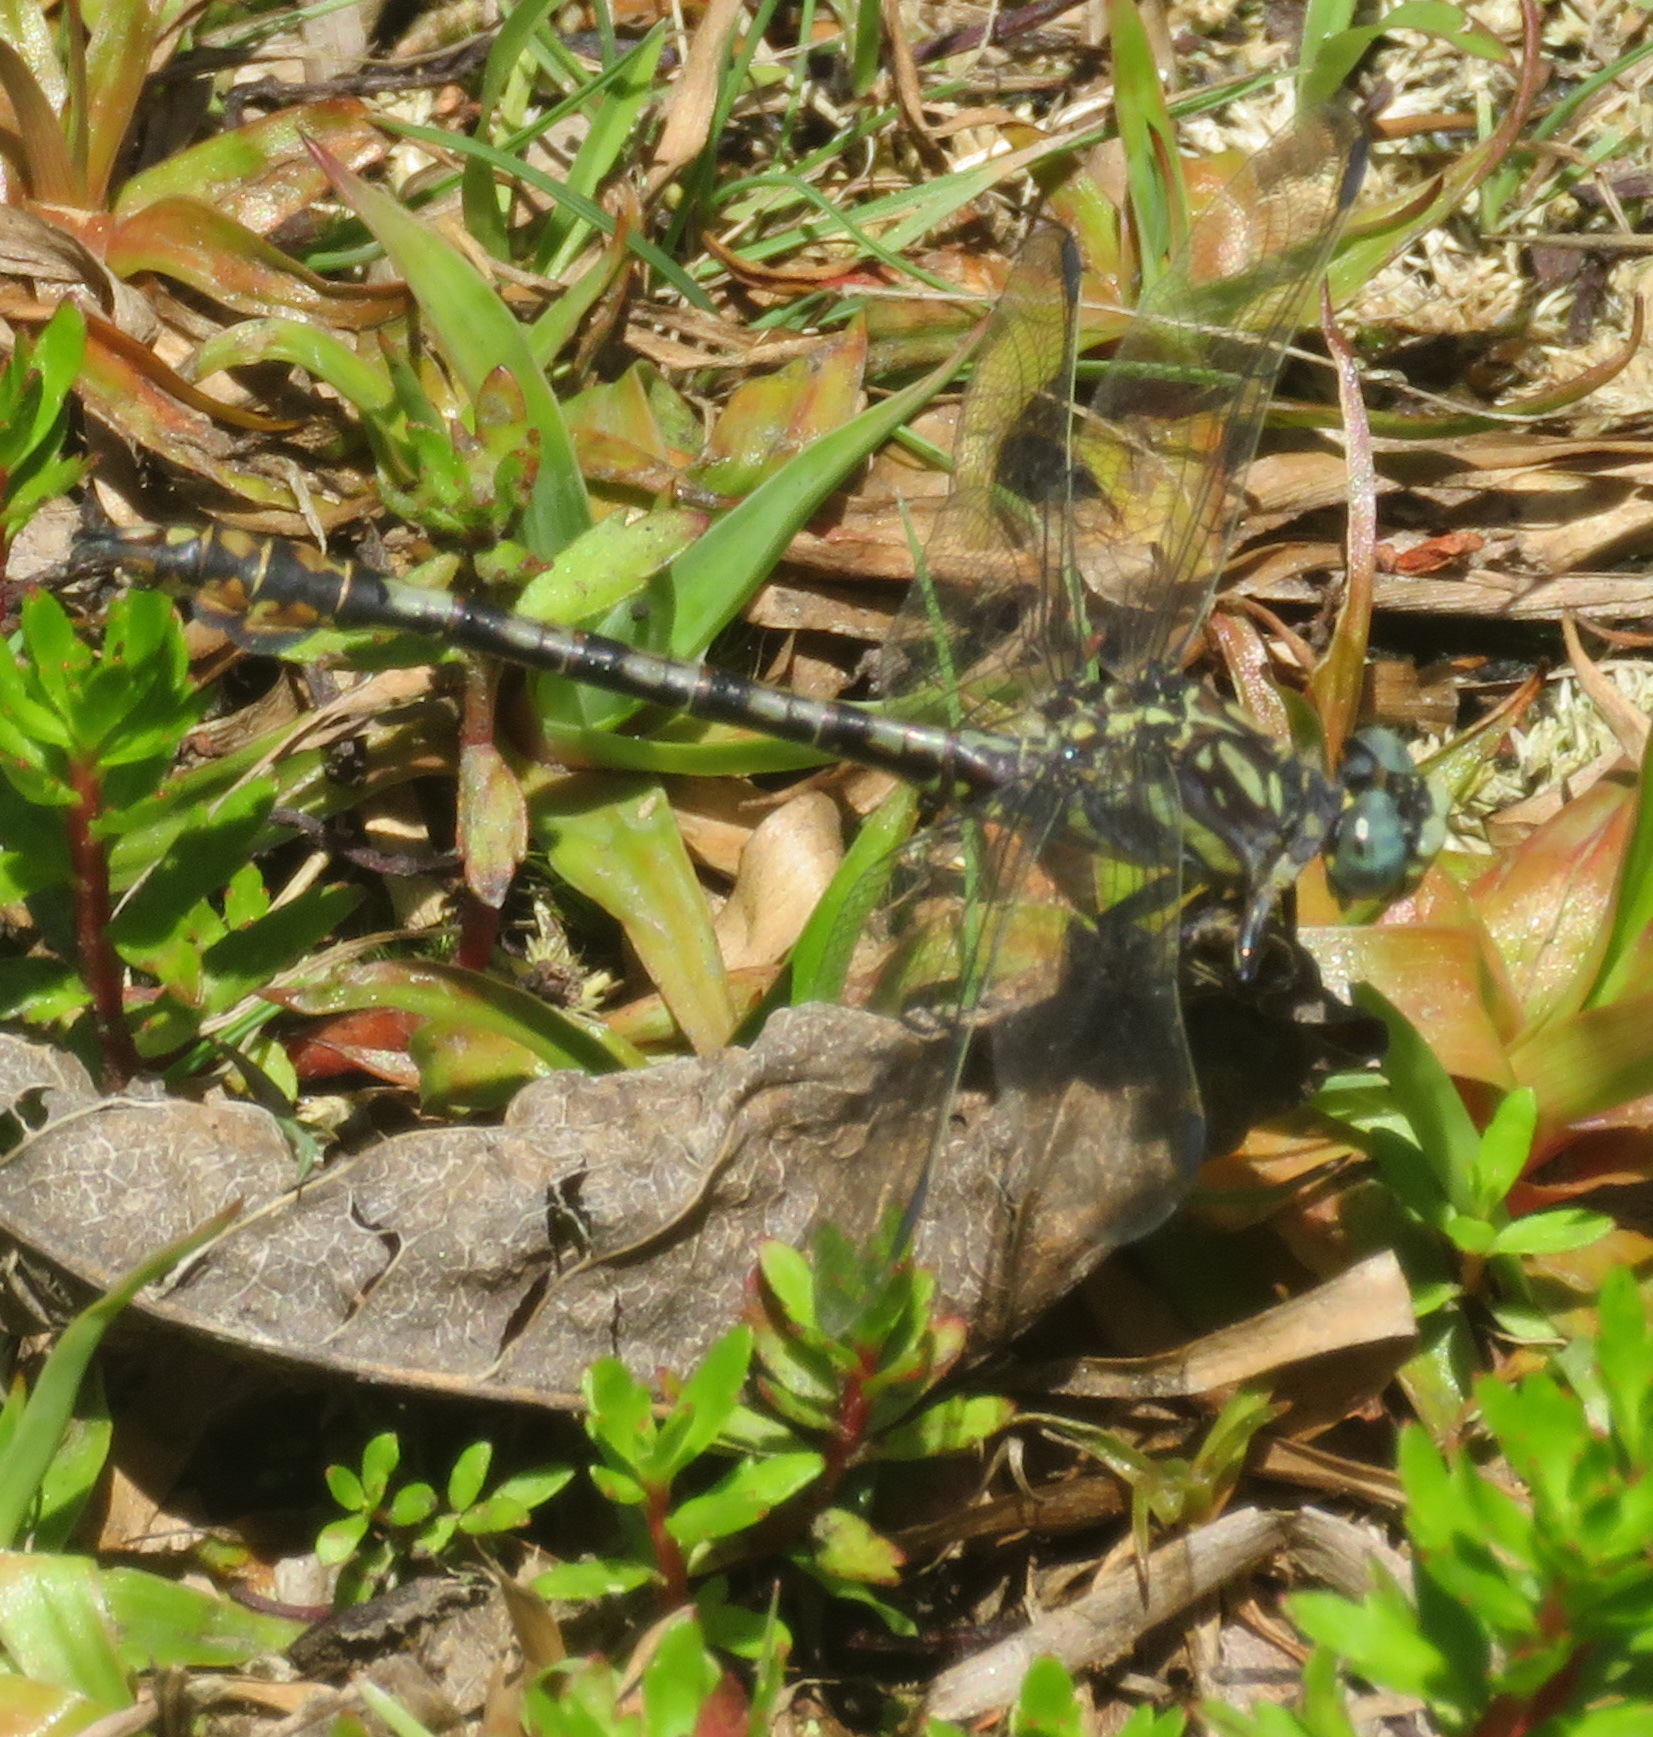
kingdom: Animalia
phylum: Arthropoda
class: Insecta
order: Odonata
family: Gomphidae
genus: Paragomphus
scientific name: Paragomphus cognatus
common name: Boulder hooktail
